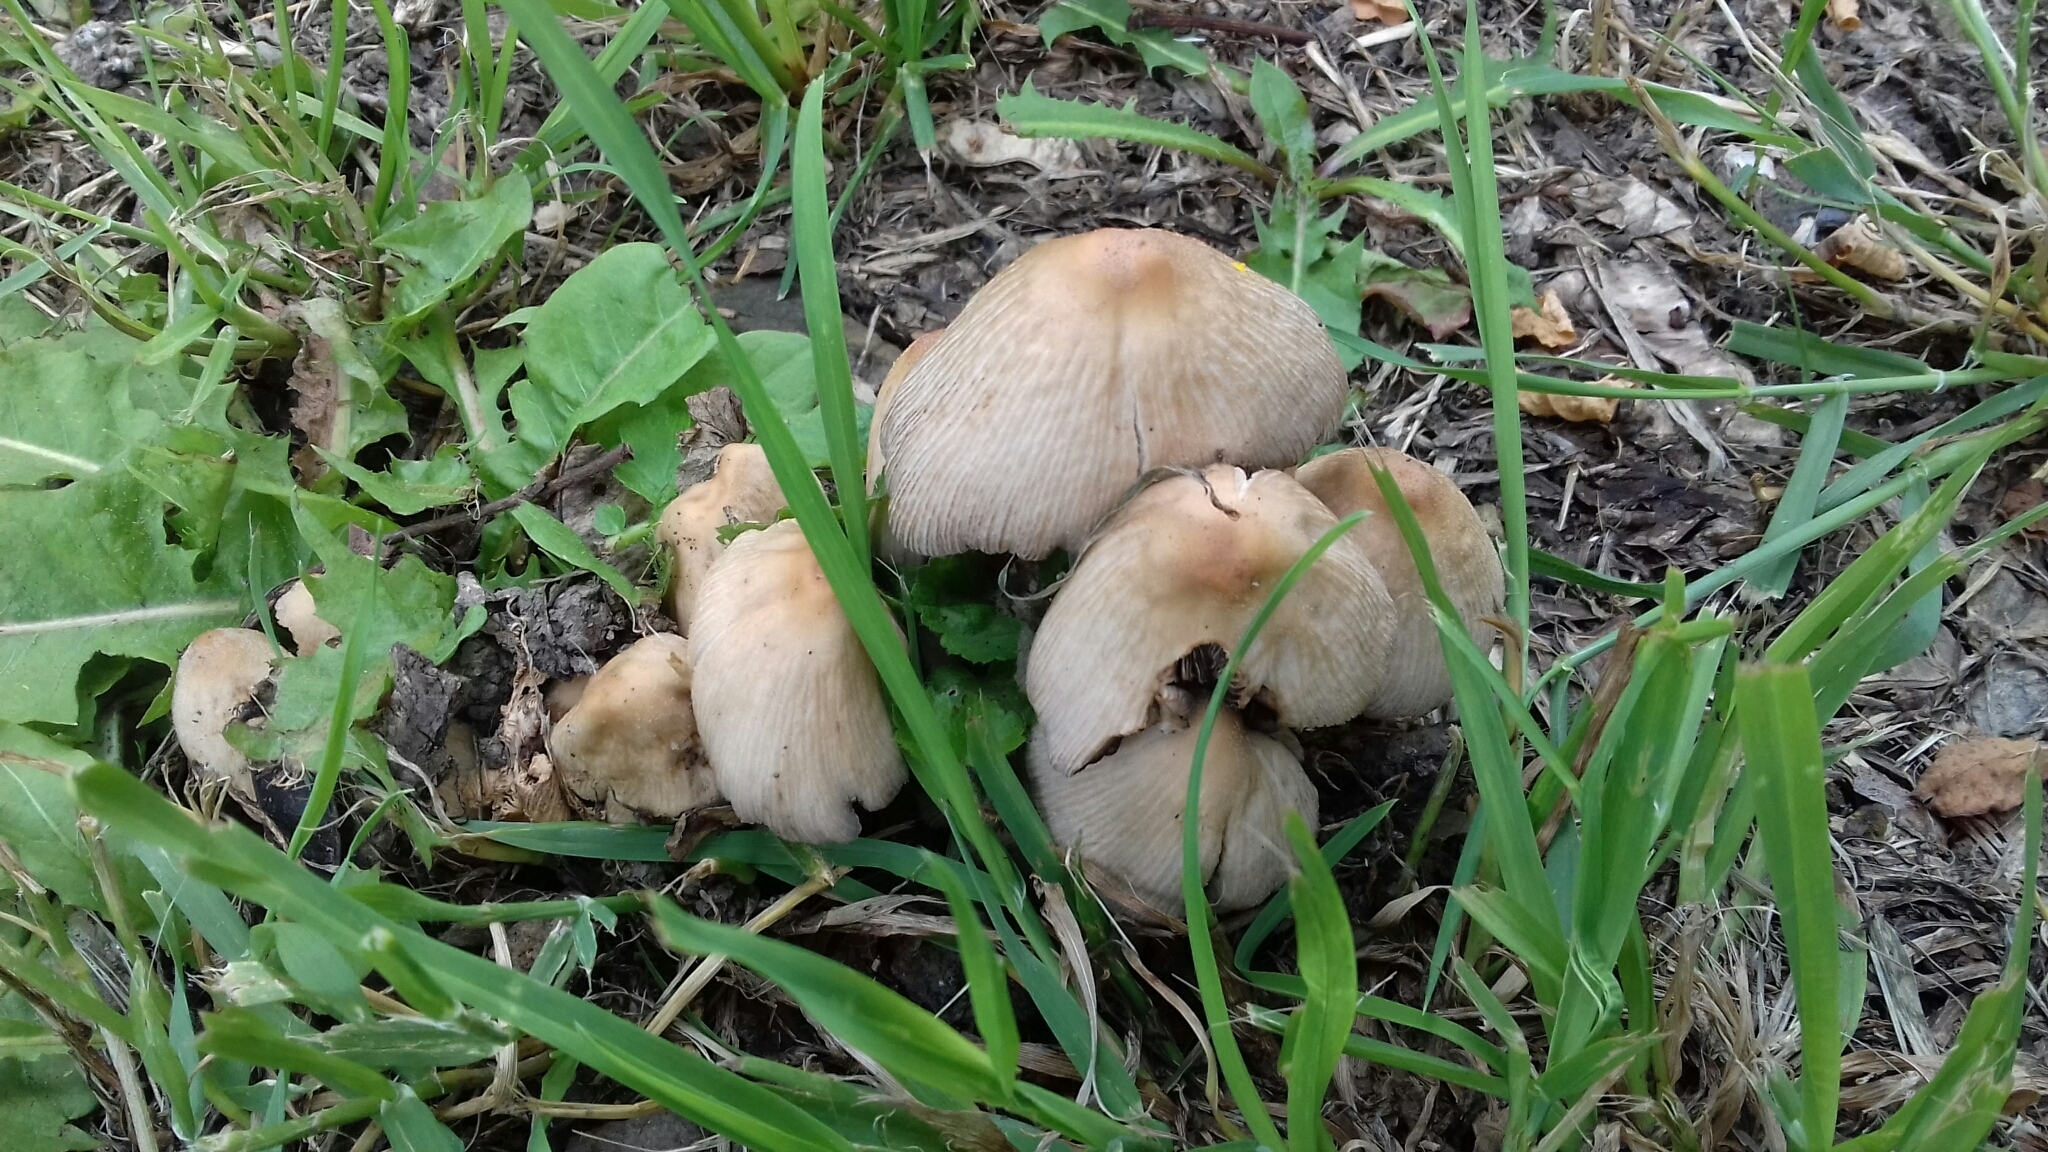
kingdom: Fungi
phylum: Basidiomycota
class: Agaricomycetes
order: Agaricales
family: Psathyrellaceae
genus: Coprinellus
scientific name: Coprinellus micaceus
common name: Glistening ink-cap
